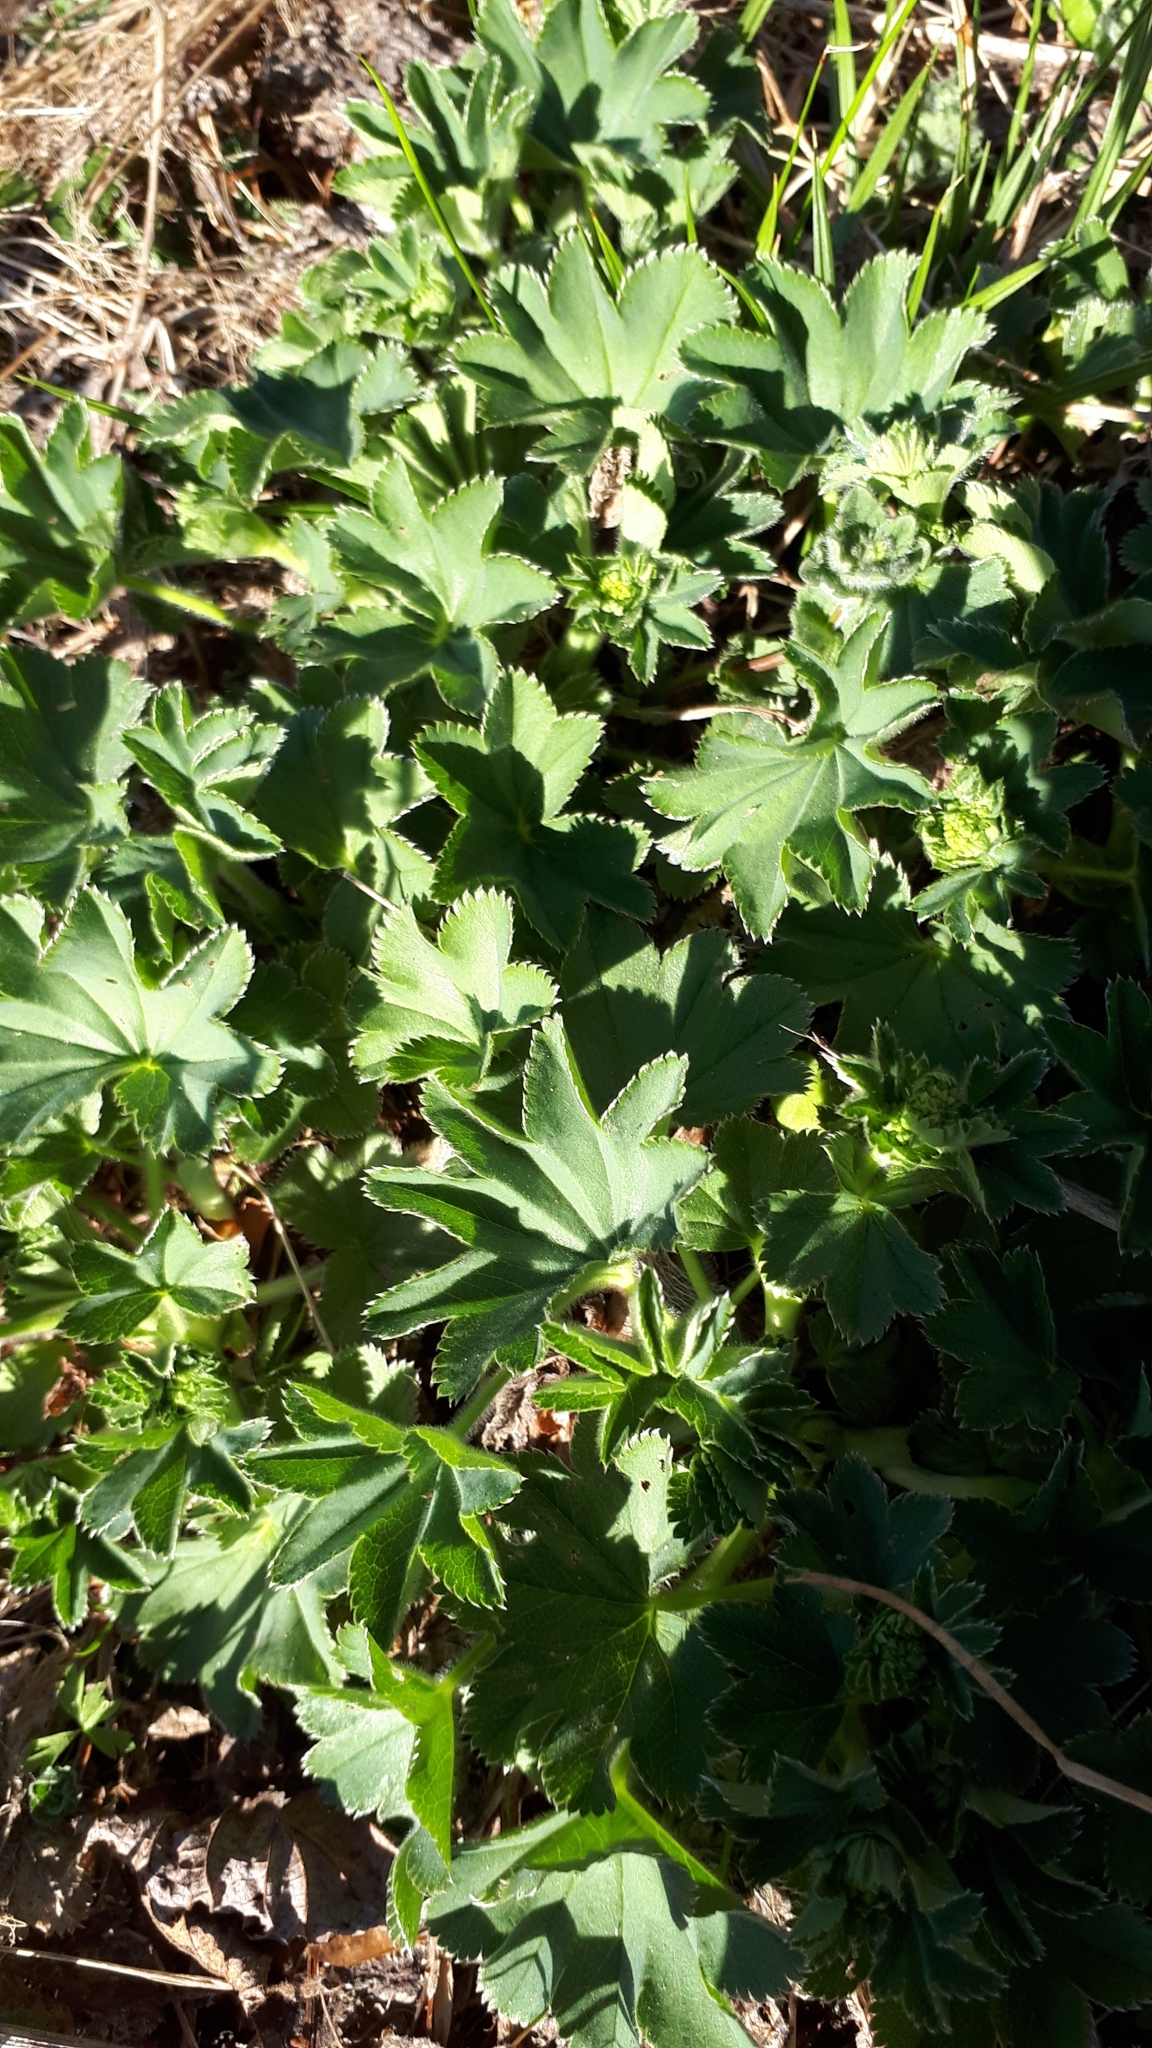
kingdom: Plantae
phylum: Tracheophyta
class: Magnoliopsida
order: Rosales
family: Rosaceae
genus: Alchemilla
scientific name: Alchemilla monticola
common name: Hairy lady's mantle
